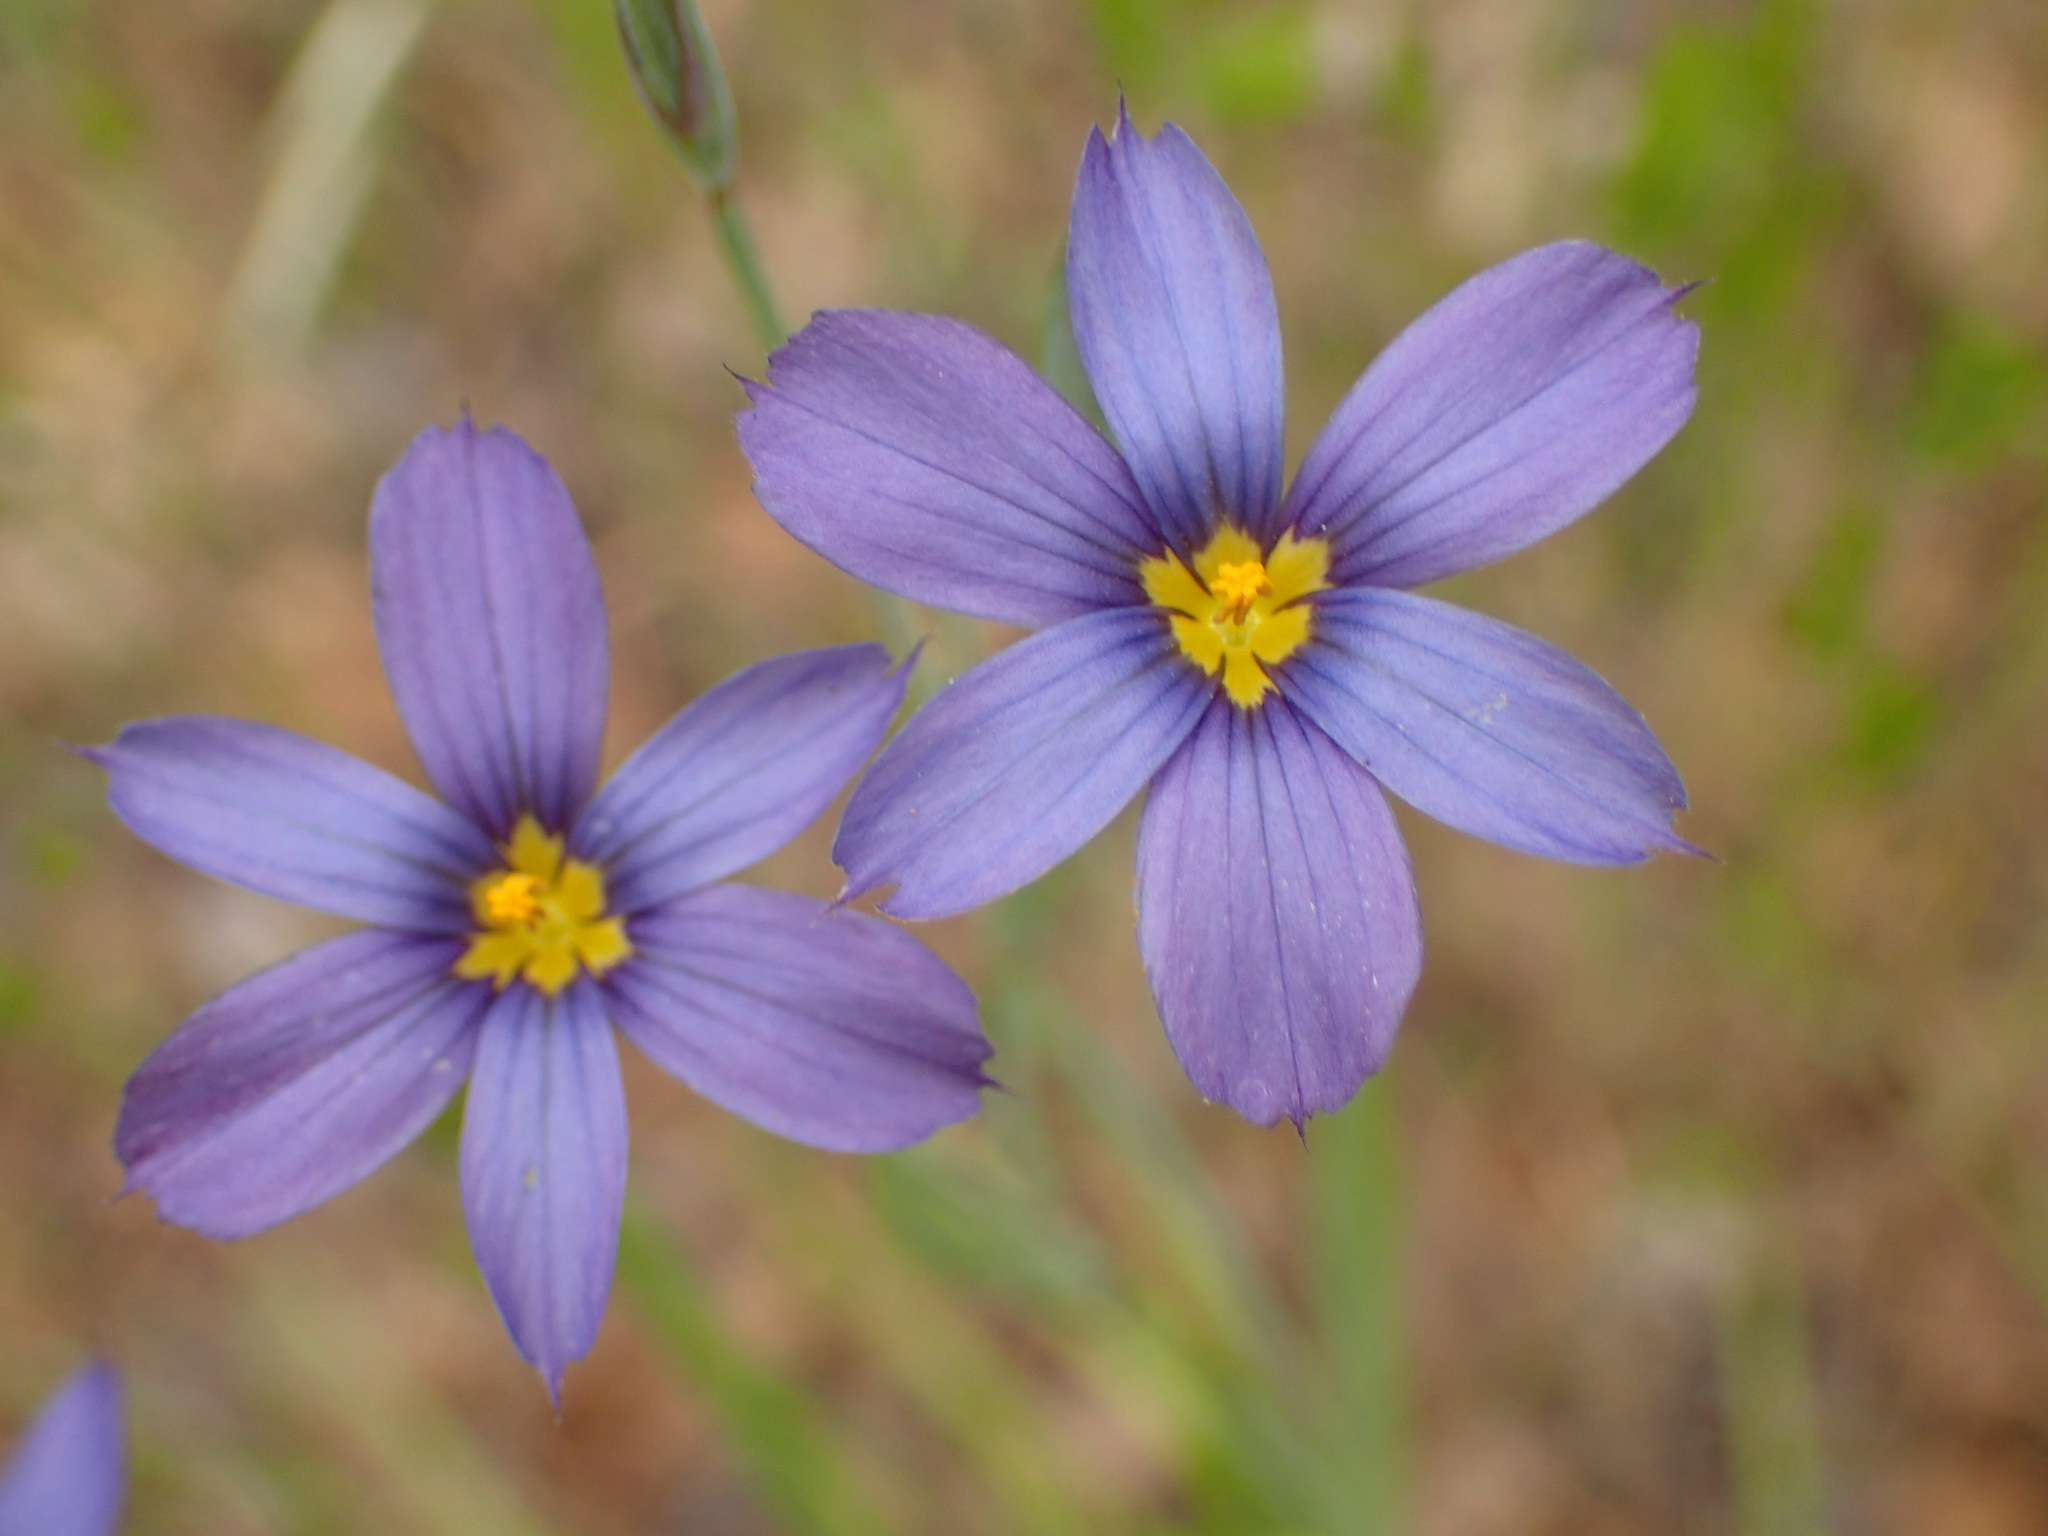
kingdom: Plantae
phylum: Tracheophyta
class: Liliopsida
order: Asparagales
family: Iridaceae
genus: Sisyrinchium
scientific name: Sisyrinchium bellum
